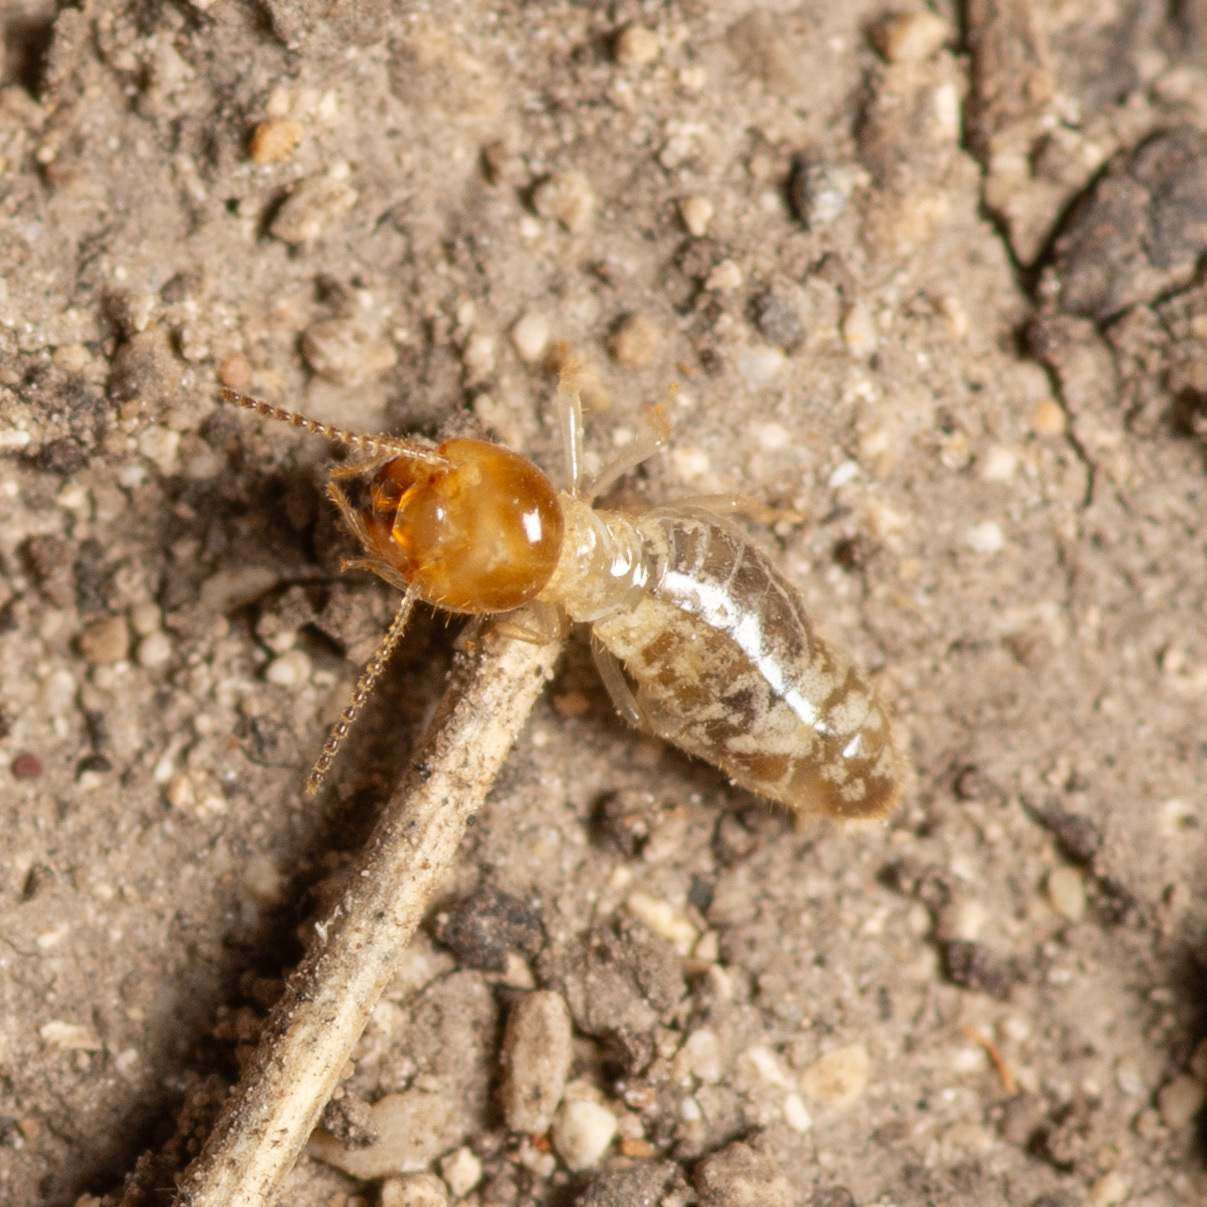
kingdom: Animalia
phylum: Arthropoda
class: Insecta
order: Blattodea
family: Termitidae
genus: Gnathamitermes
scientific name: Gnathamitermes
